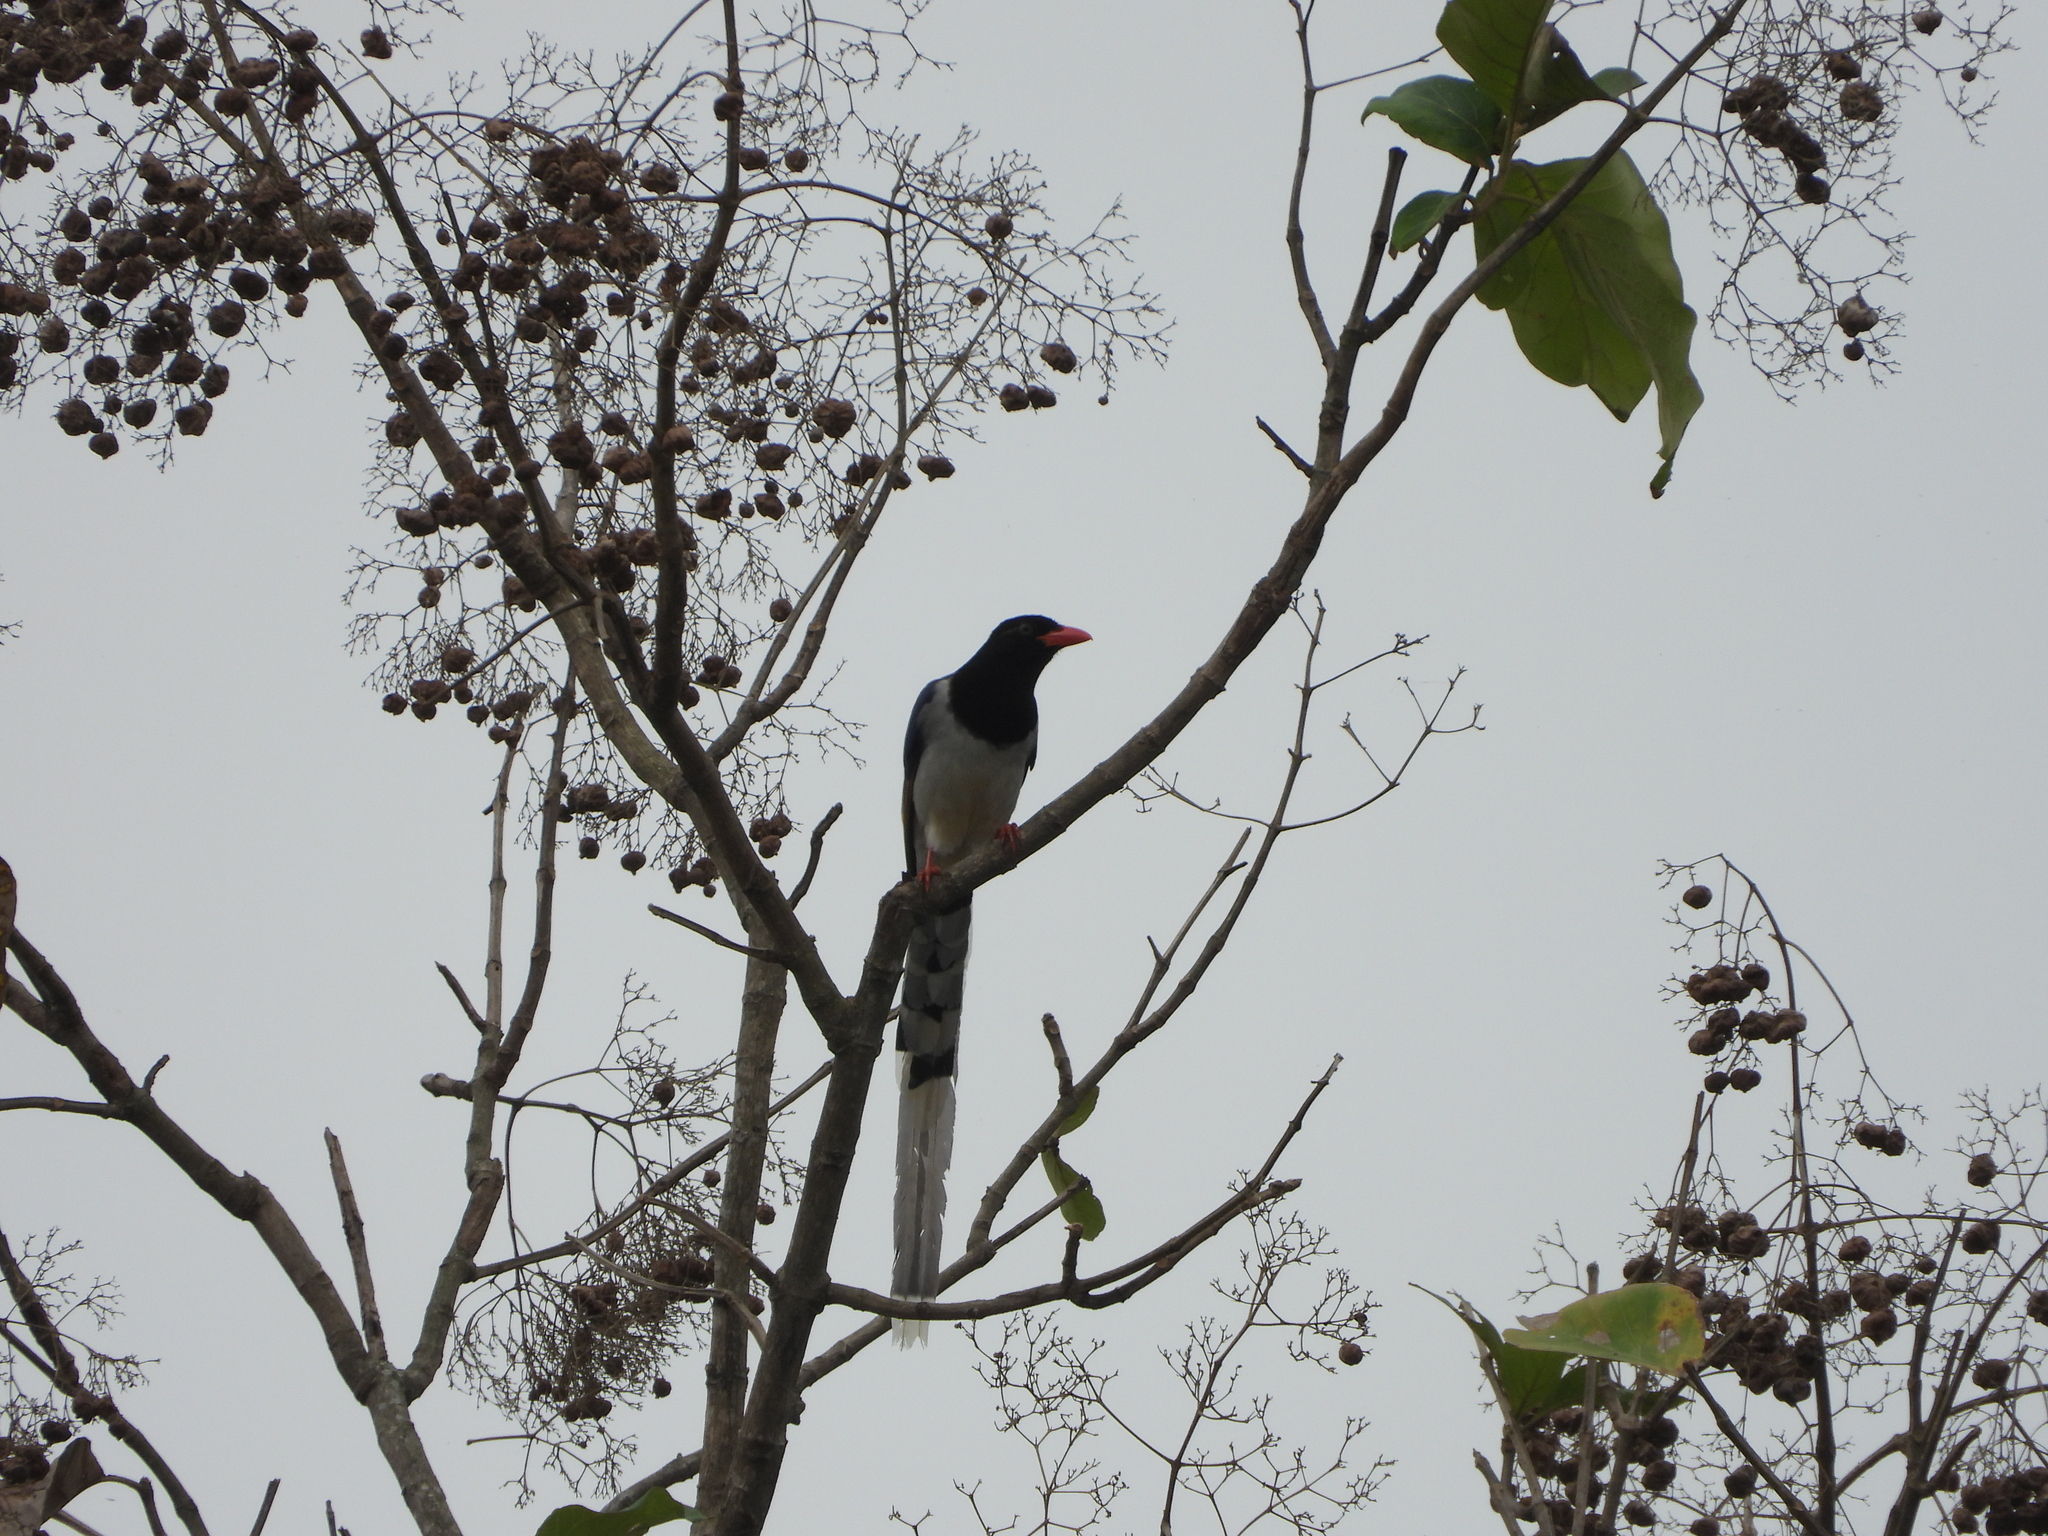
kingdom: Animalia
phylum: Chordata
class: Aves
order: Passeriformes
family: Corvidae
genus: Urocissa
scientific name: Urocissa erythroryncha
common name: Red-billed blue magpie
